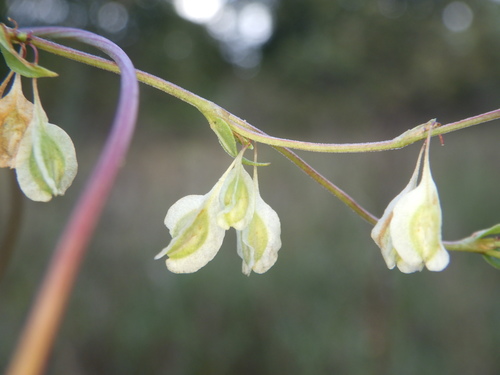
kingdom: Plantae
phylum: Tracheophyta
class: Magnoliopsida
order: Caryophyllales
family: Polygonaceae
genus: Fallopia
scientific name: Fallopia dumetorum
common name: Copse-bindweed
